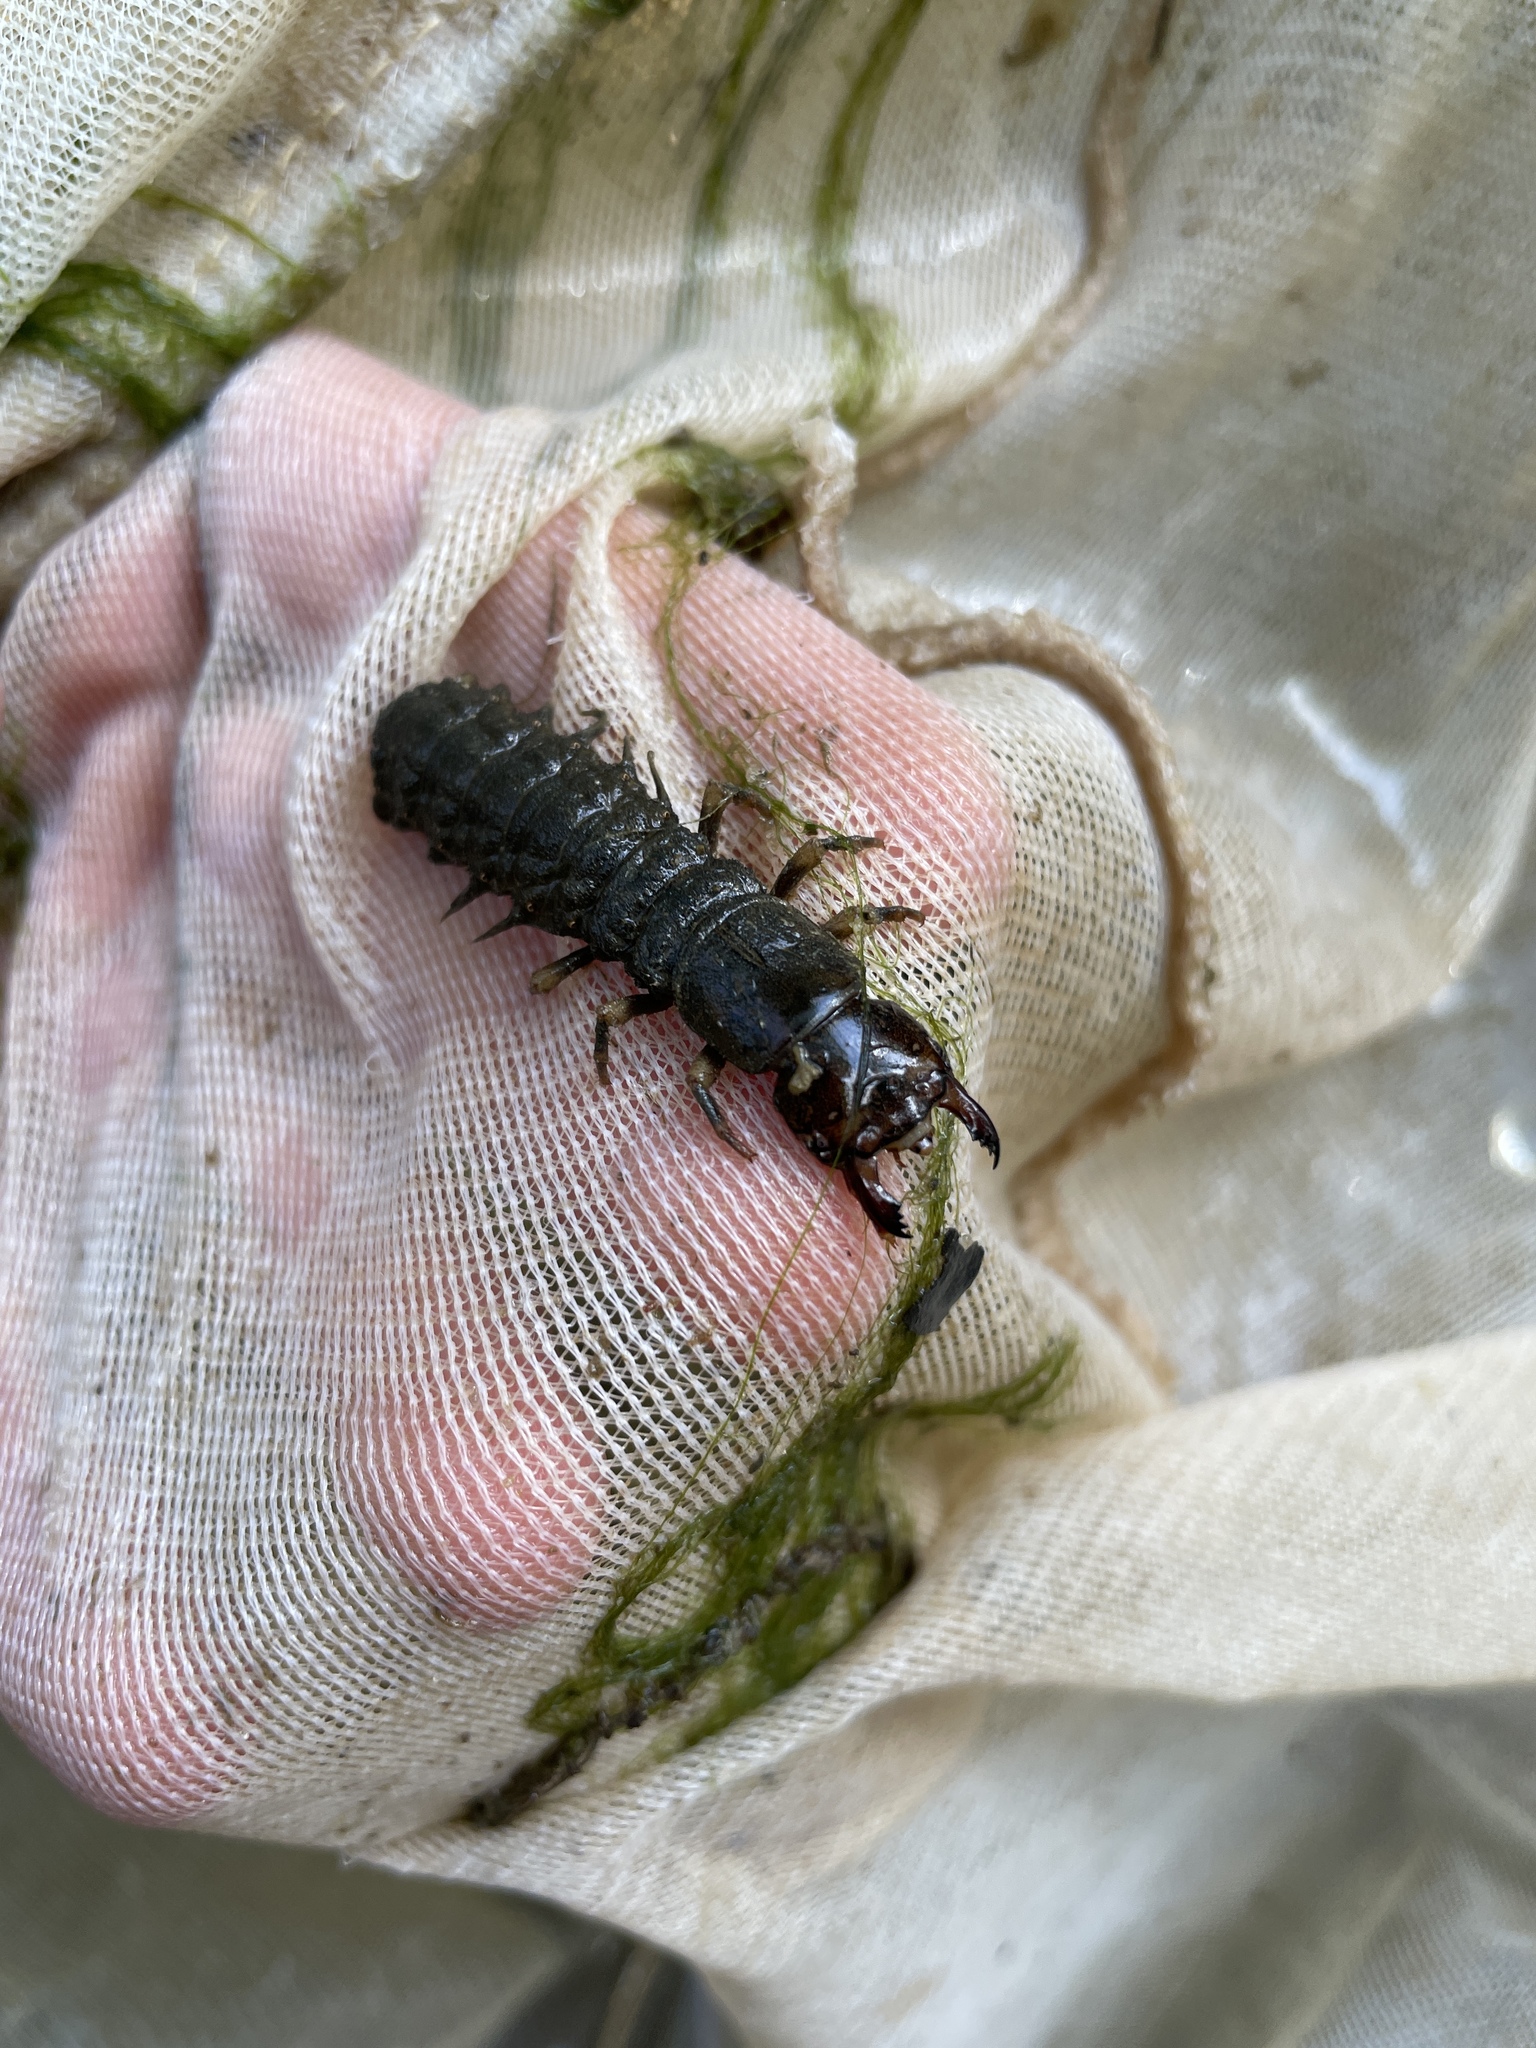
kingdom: Animalia
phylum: Arthropoda
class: Insecta
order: Megaloptera
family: Corydalidae
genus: Corydalus
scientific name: Corydalus cornutus
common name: Dobsonfly
